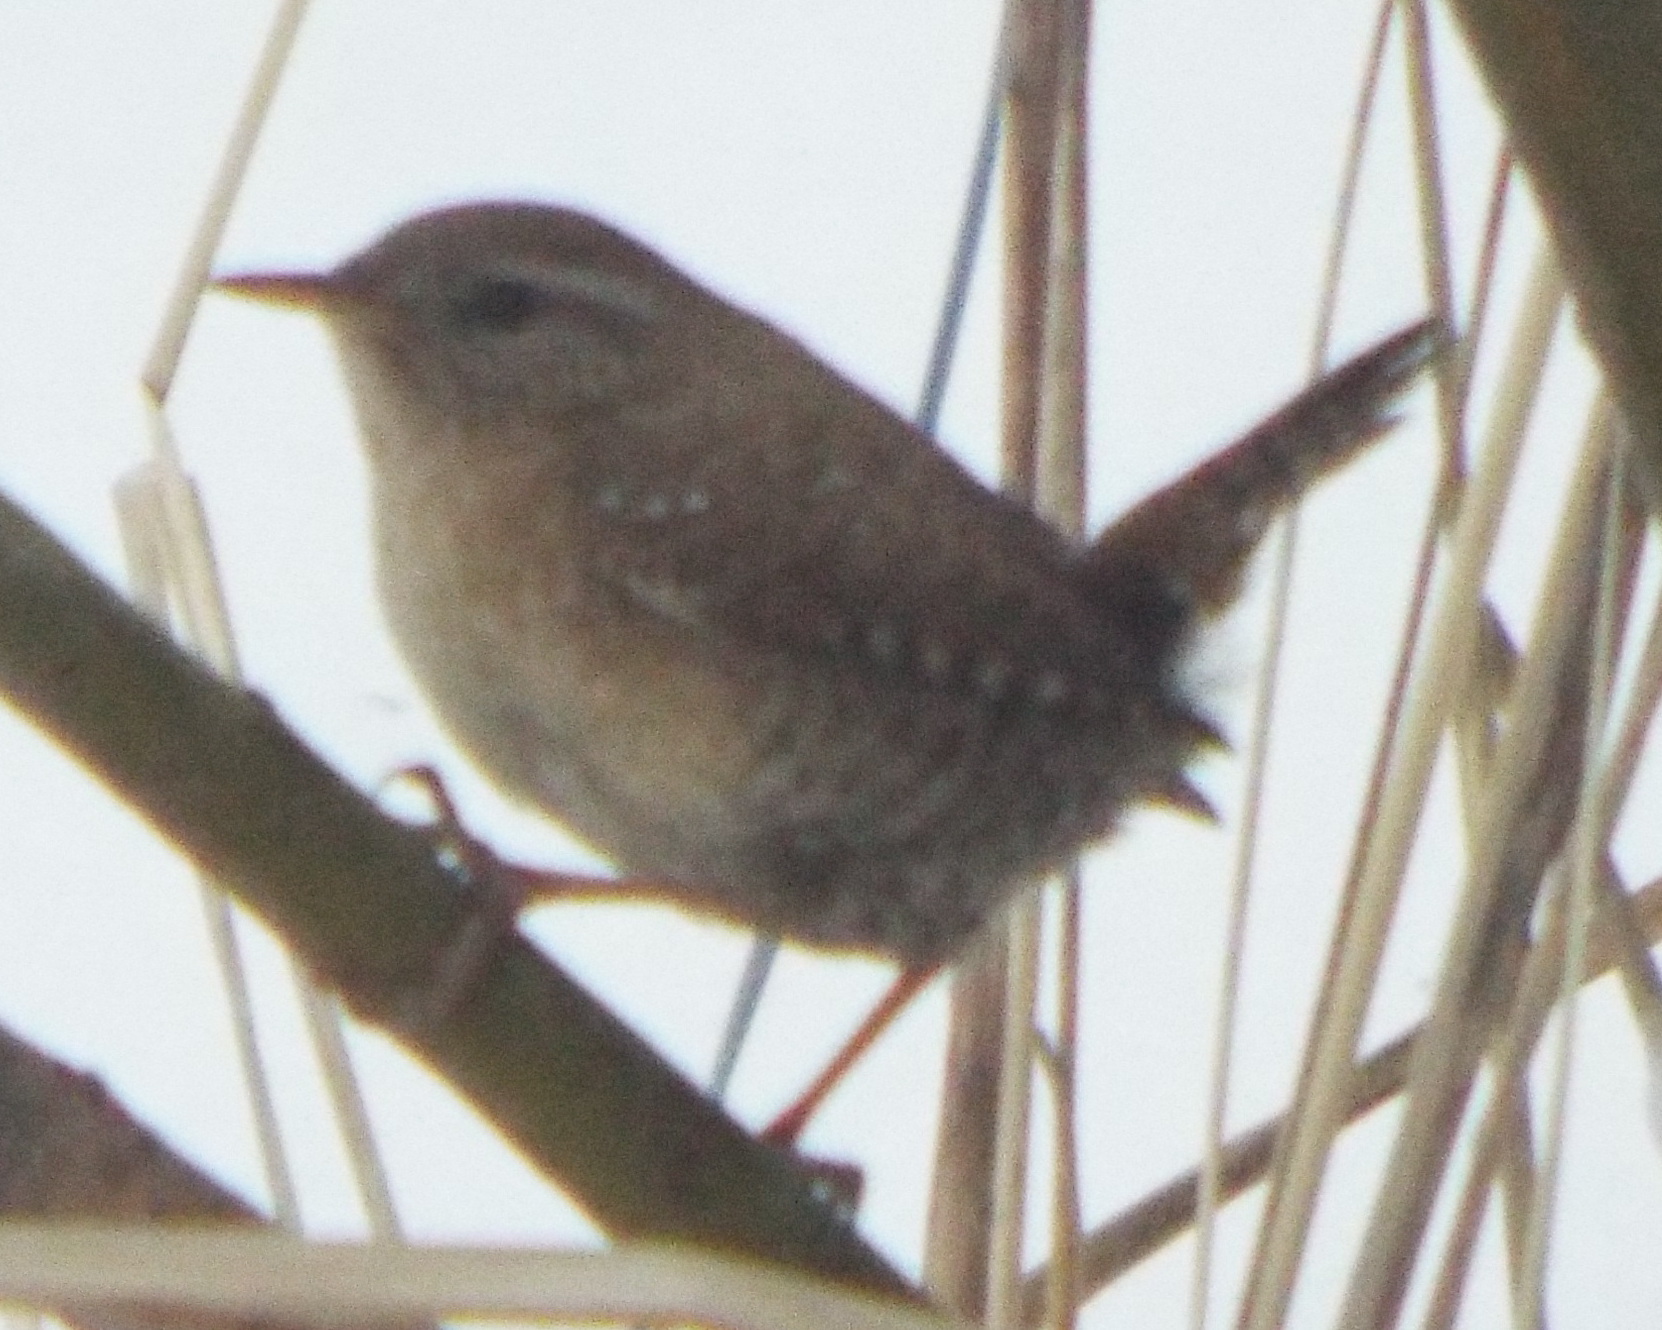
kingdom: Animalia
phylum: Chordata
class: Aves
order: Passeriformes
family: Troglodytidae
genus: Troglodytes
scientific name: Troglodytes troglodytes
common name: Eurasian wren
